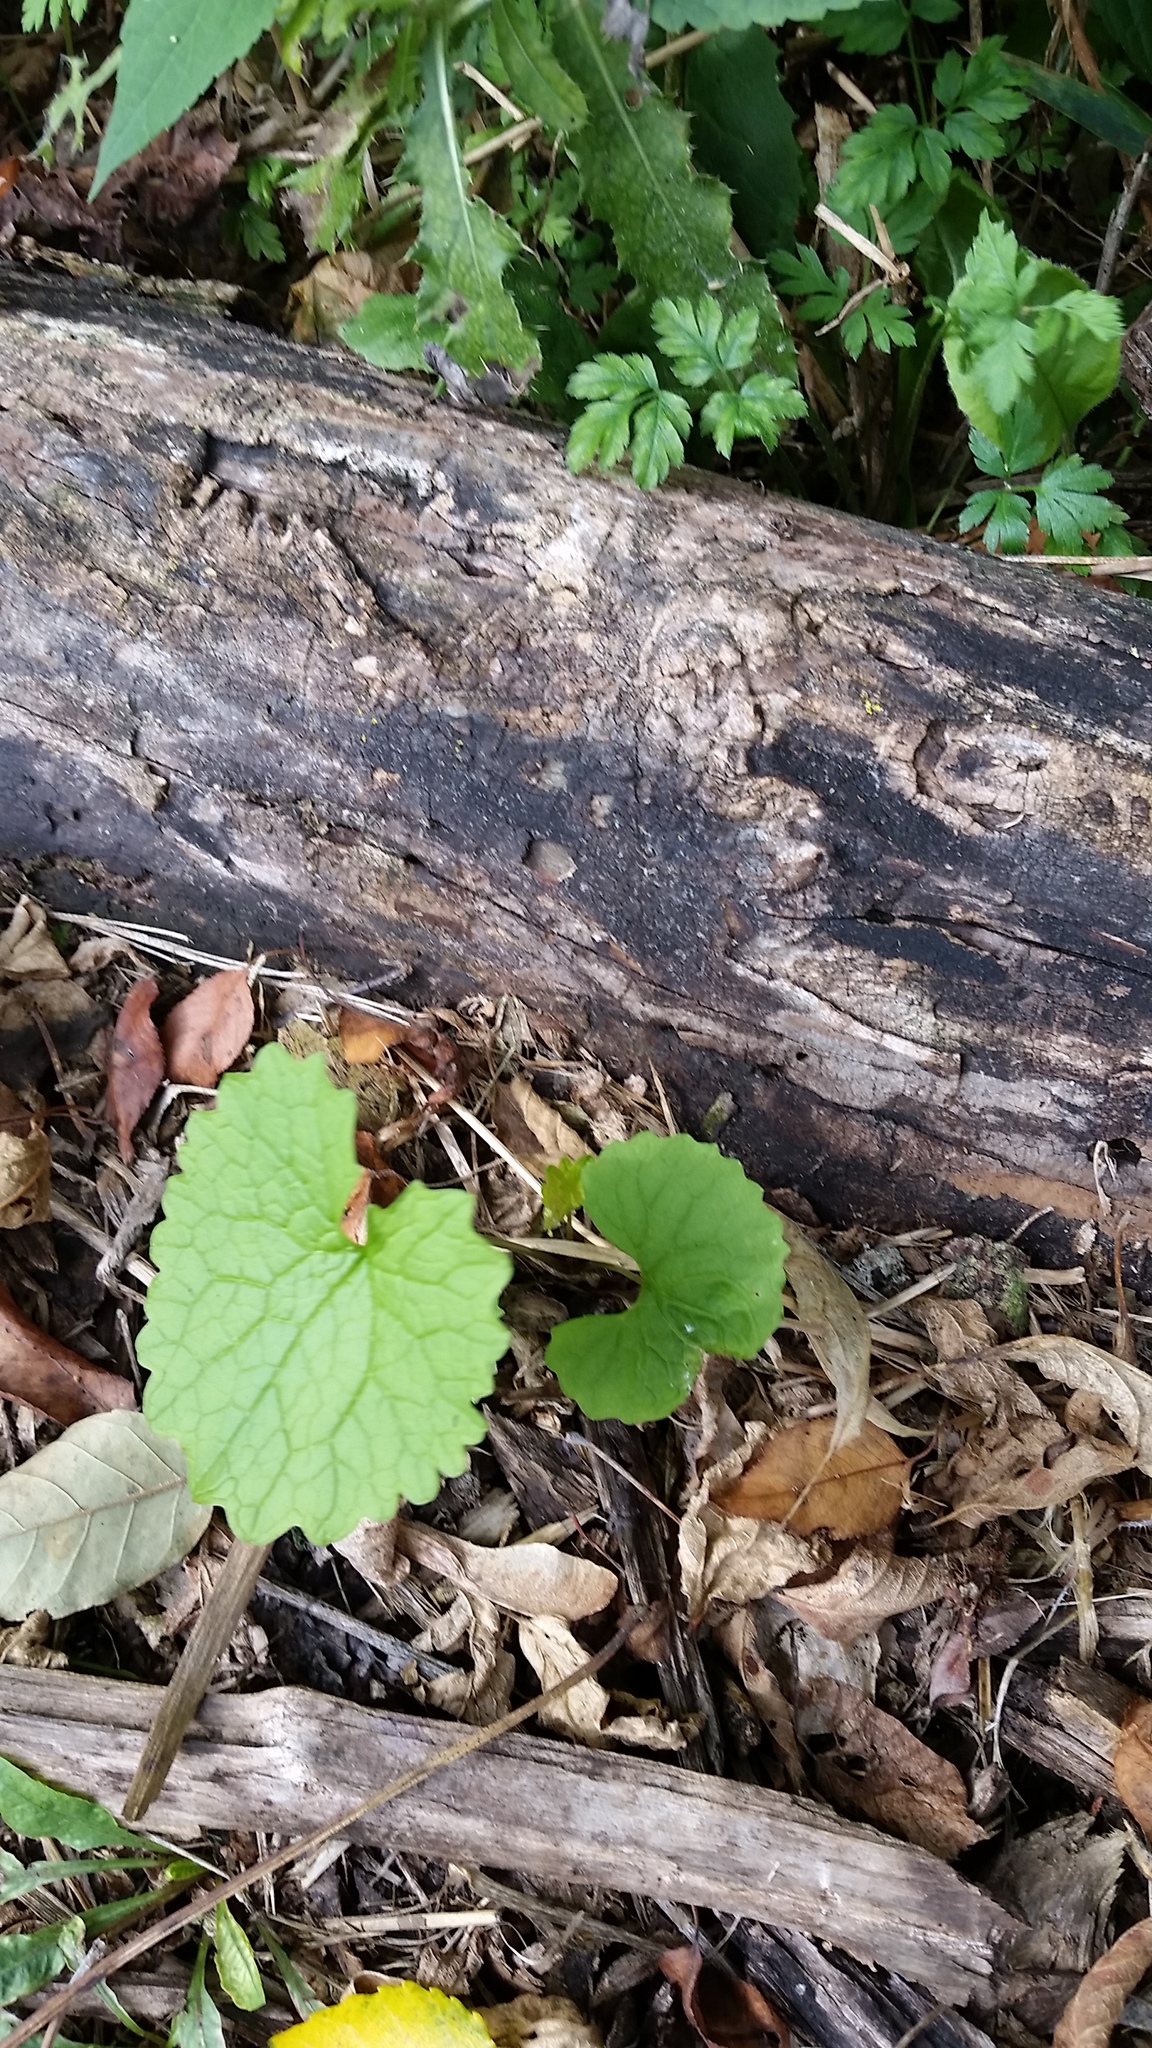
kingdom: Plantae
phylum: Tracheophyta
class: Magnoliopsida
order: Brassicales
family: Brassicaceae
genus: Alliaria
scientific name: Alliaria petiolata
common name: Garlic mustard
